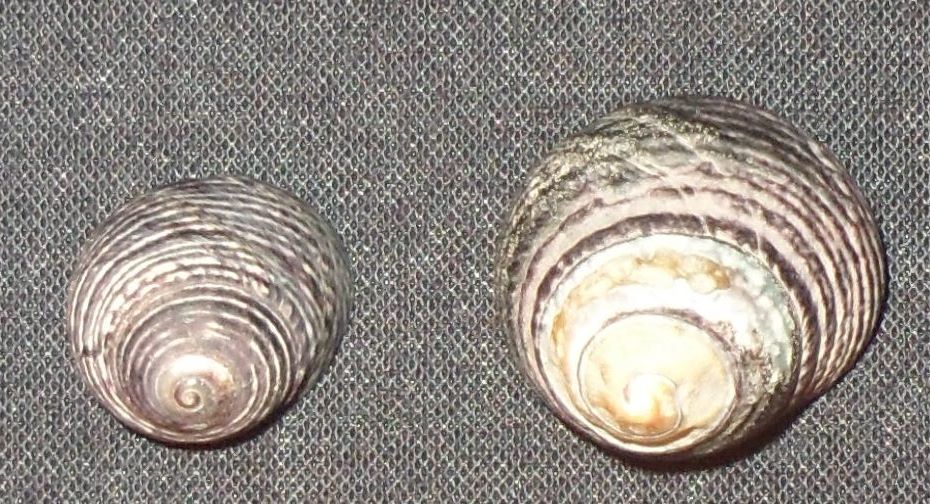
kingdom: Animalia
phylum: Mollusca
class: Gastropoda
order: Trochida
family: Tegulidae
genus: Tegula
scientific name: Tegula funebralis
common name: Black tegula
